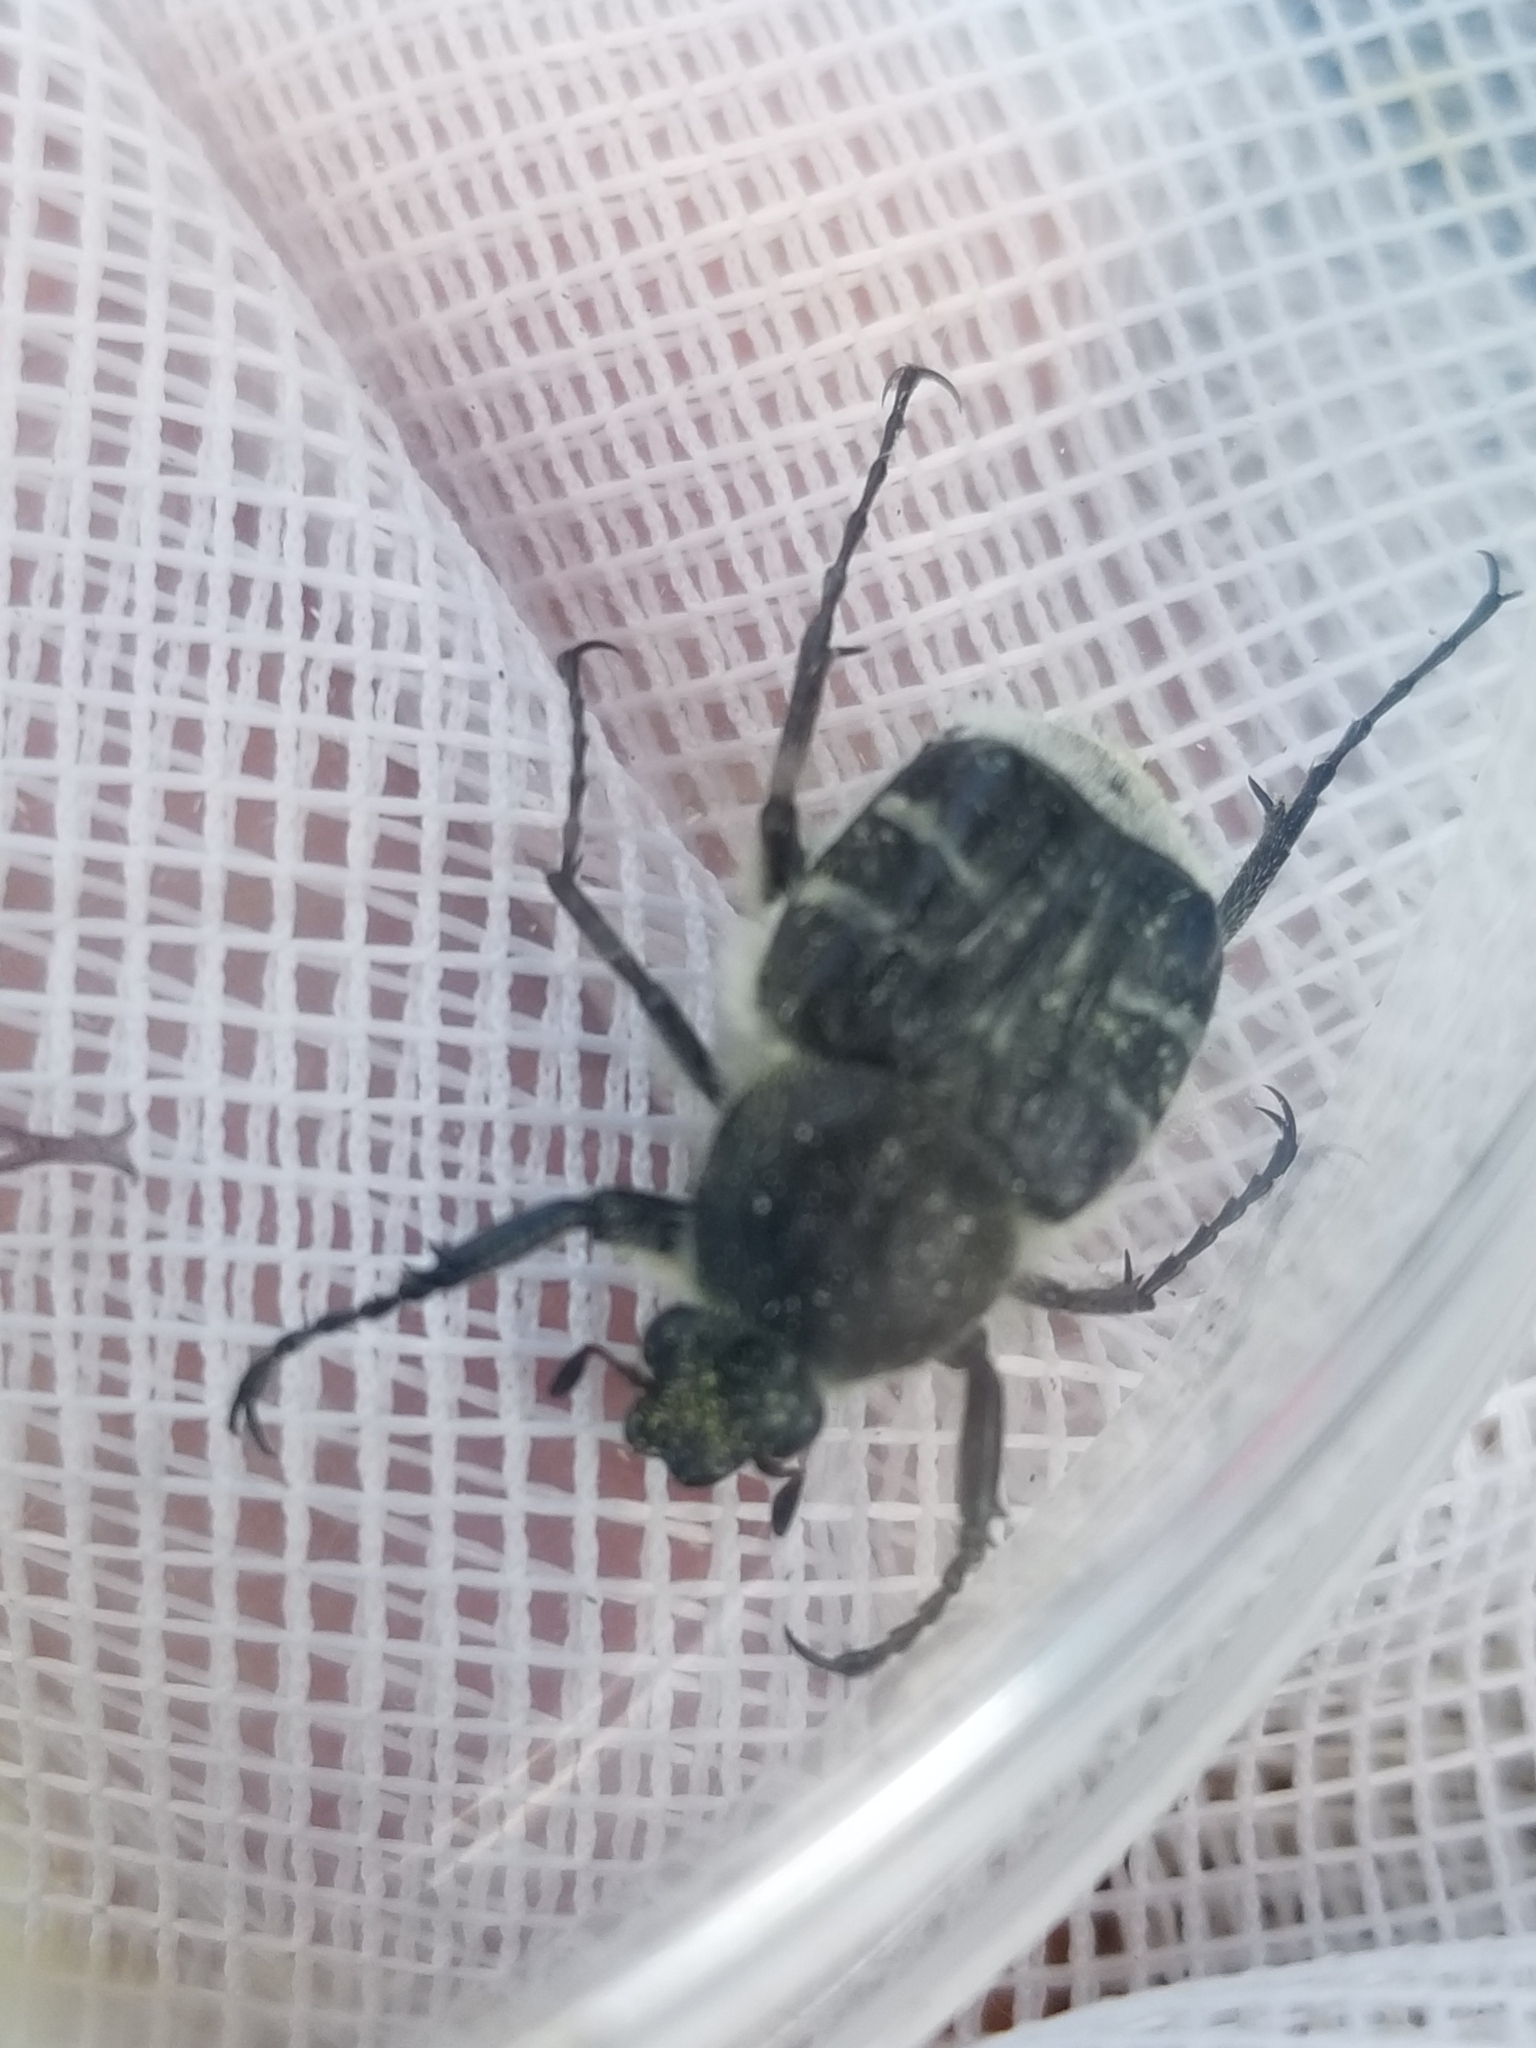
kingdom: Animalia
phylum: Arthropoda
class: Insecta
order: Coleoptera
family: Scarabaeidae
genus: Trichiotinus
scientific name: Trichiotinus texanus
